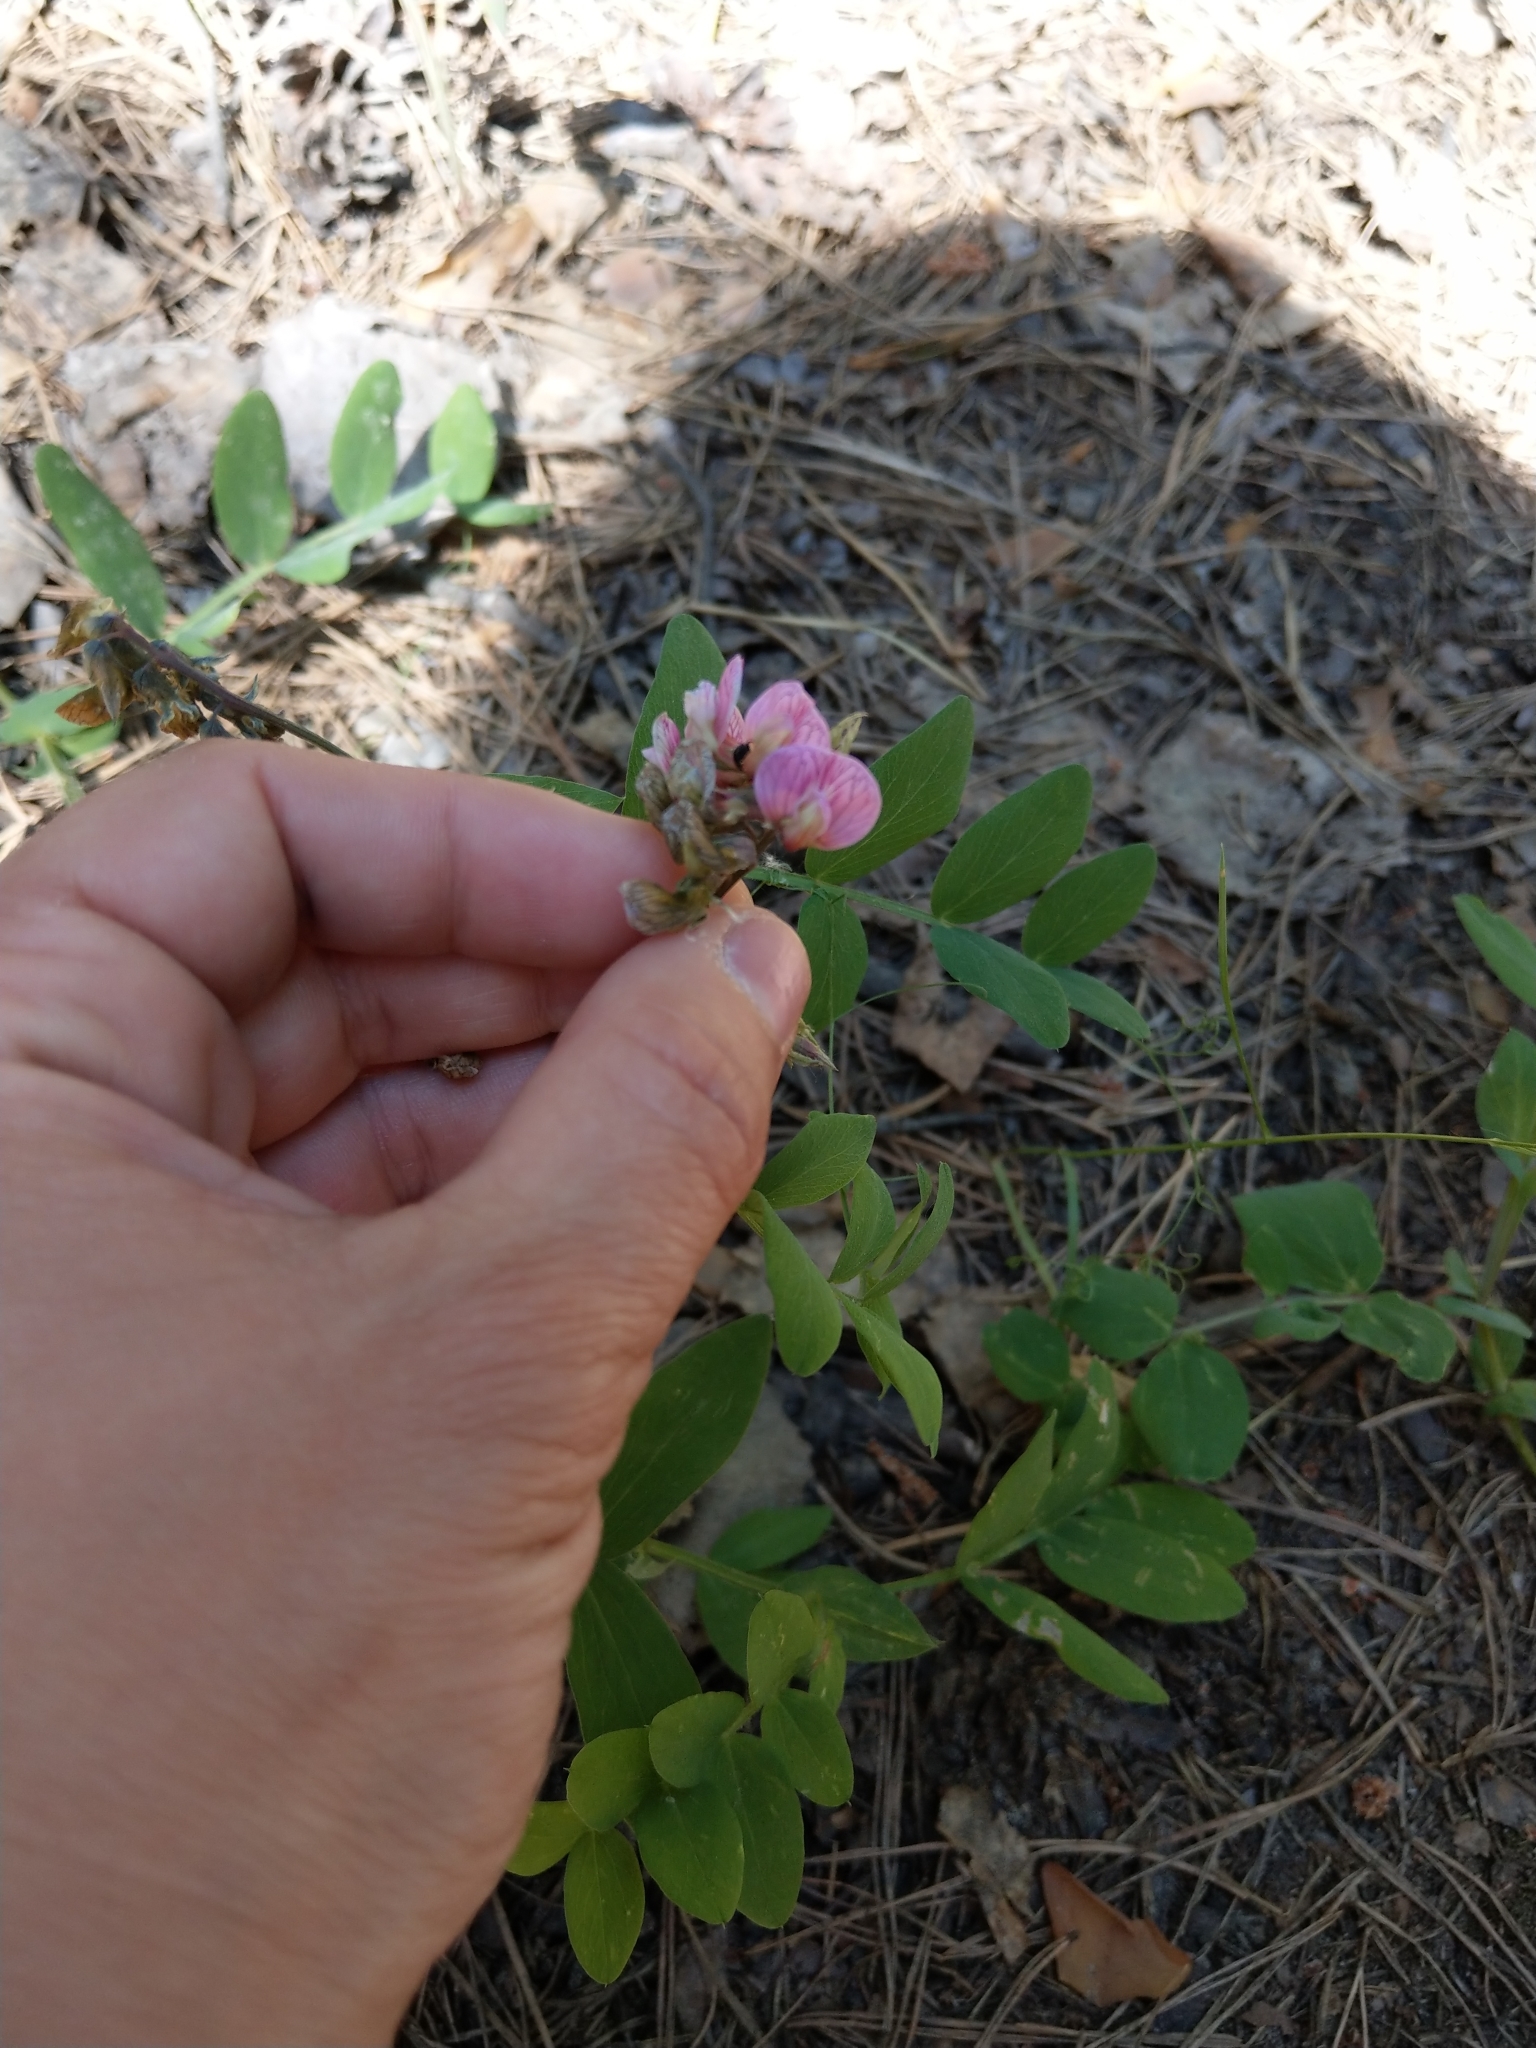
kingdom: Plantae
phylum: Tracheophyta
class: Magnoliopsida
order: Fabales
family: Fabaceae
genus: Lathyrus
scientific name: Lathyrus pisiformis
